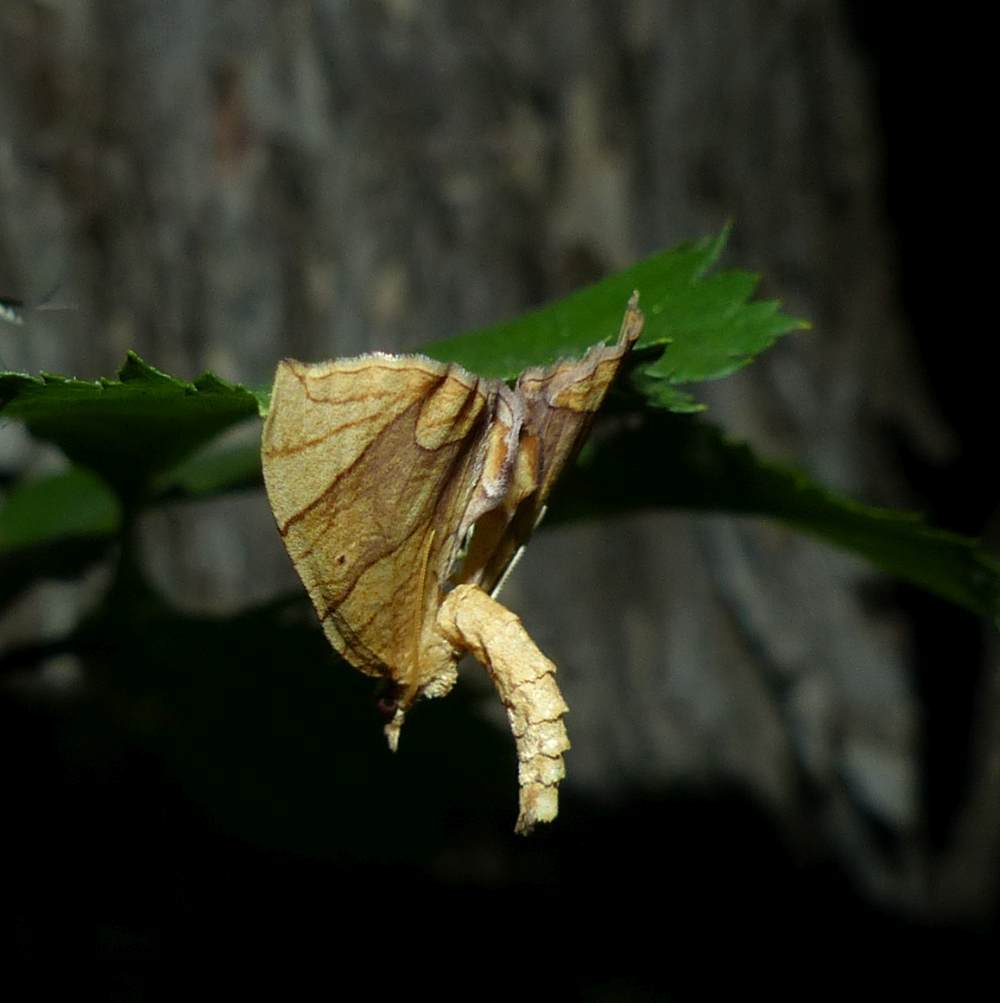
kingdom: Animalia
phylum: Arthropoda
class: Insecta
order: Lepidoptera
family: Geometridae
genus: Eulithis
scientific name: Eulithis
